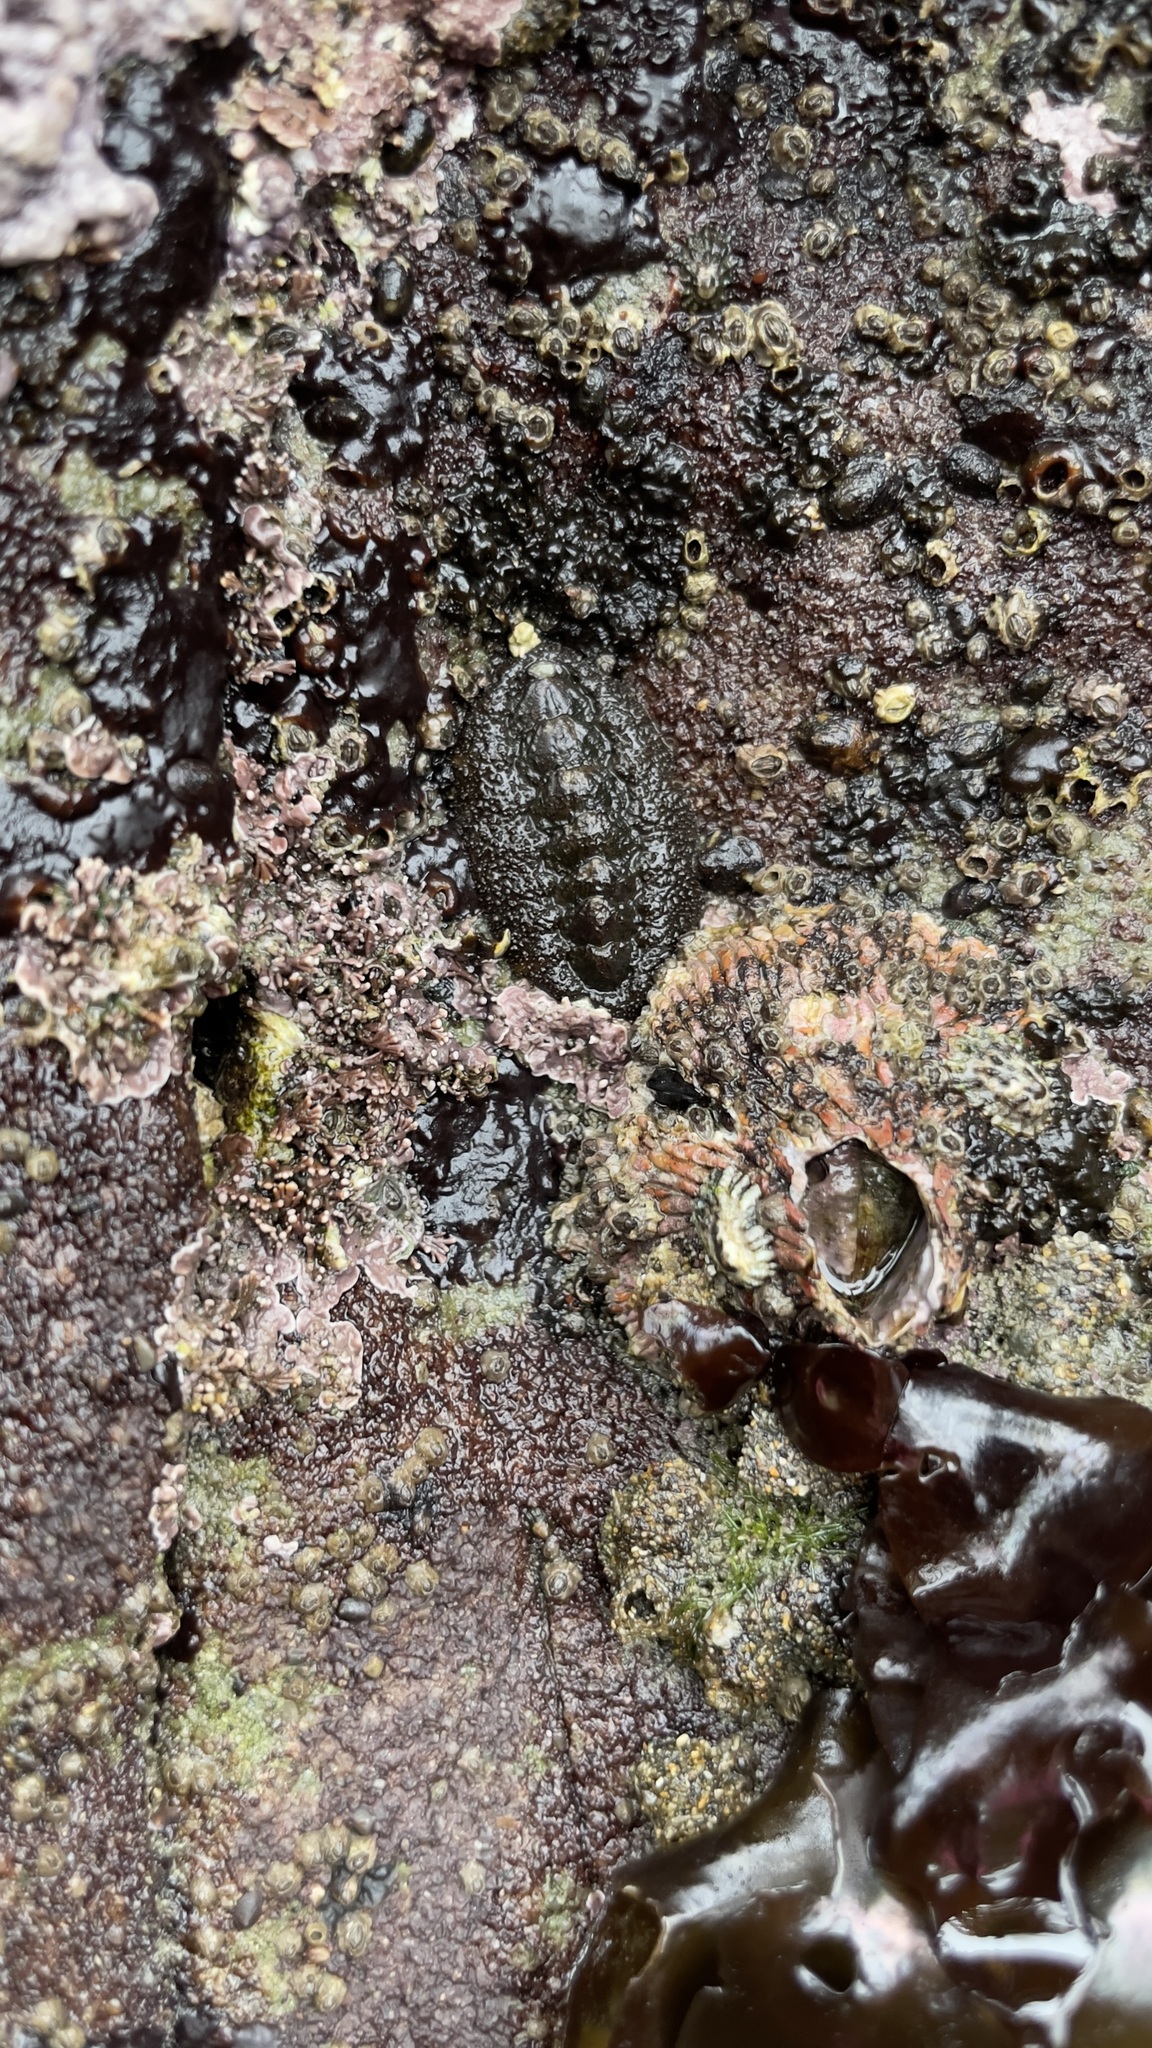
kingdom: Animalia
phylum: Mollusca
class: Polyplacophora
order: Chitonida
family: Tonicellidae
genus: Nuttallina
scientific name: Nuttallina californica
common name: California nuttall chiton
